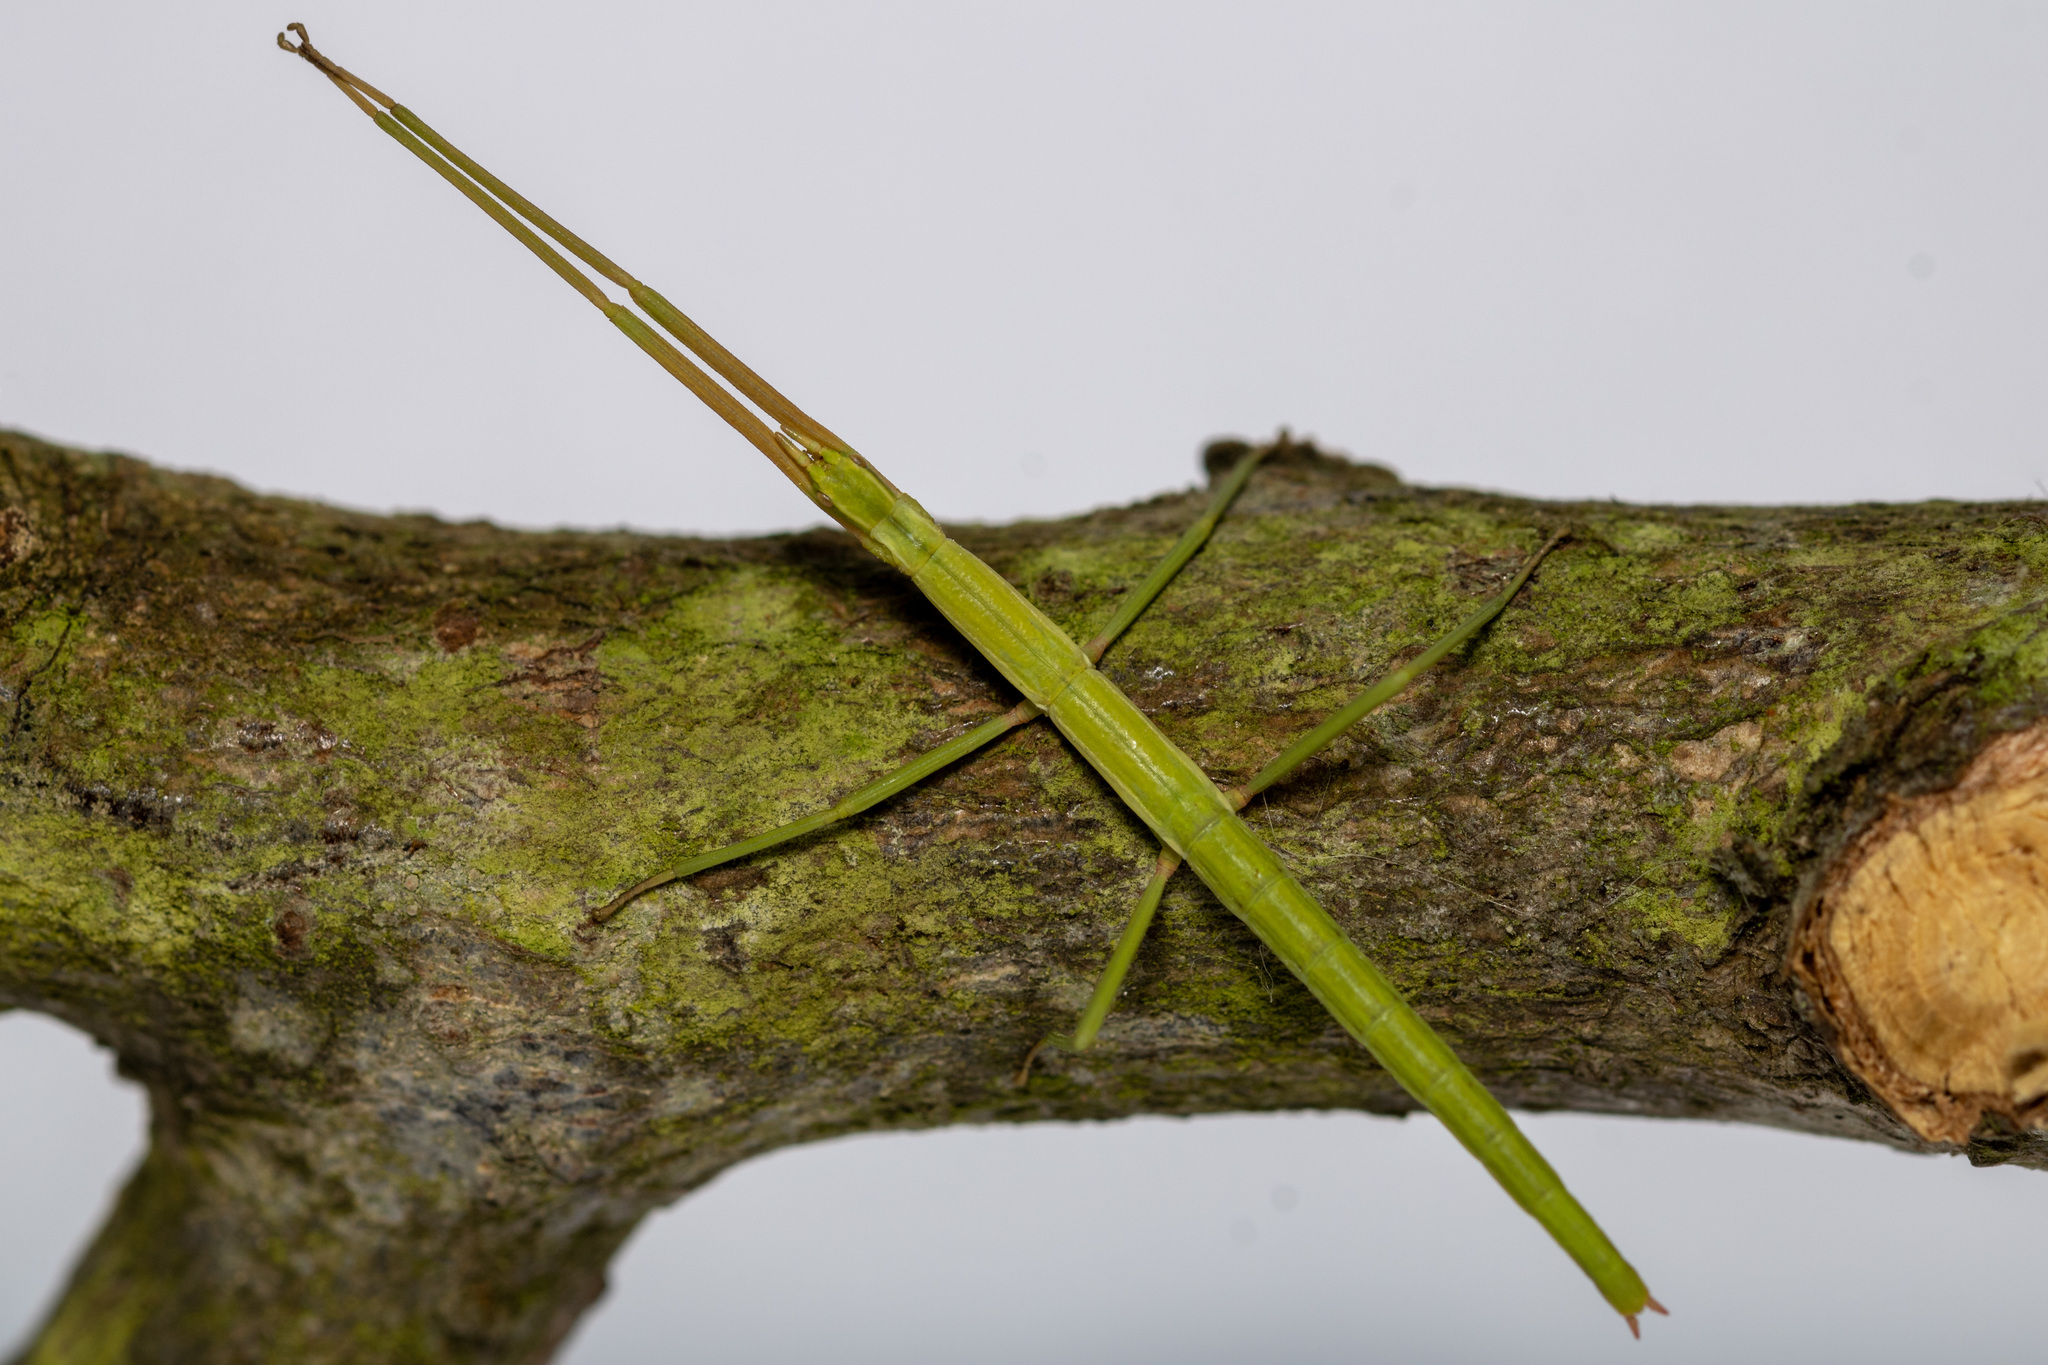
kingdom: Animalia
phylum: Arthropoda
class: Insecta
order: Phasmida
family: Bacillidae
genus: Clonopsis
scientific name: Clonopsis gallica
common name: French stick insect
